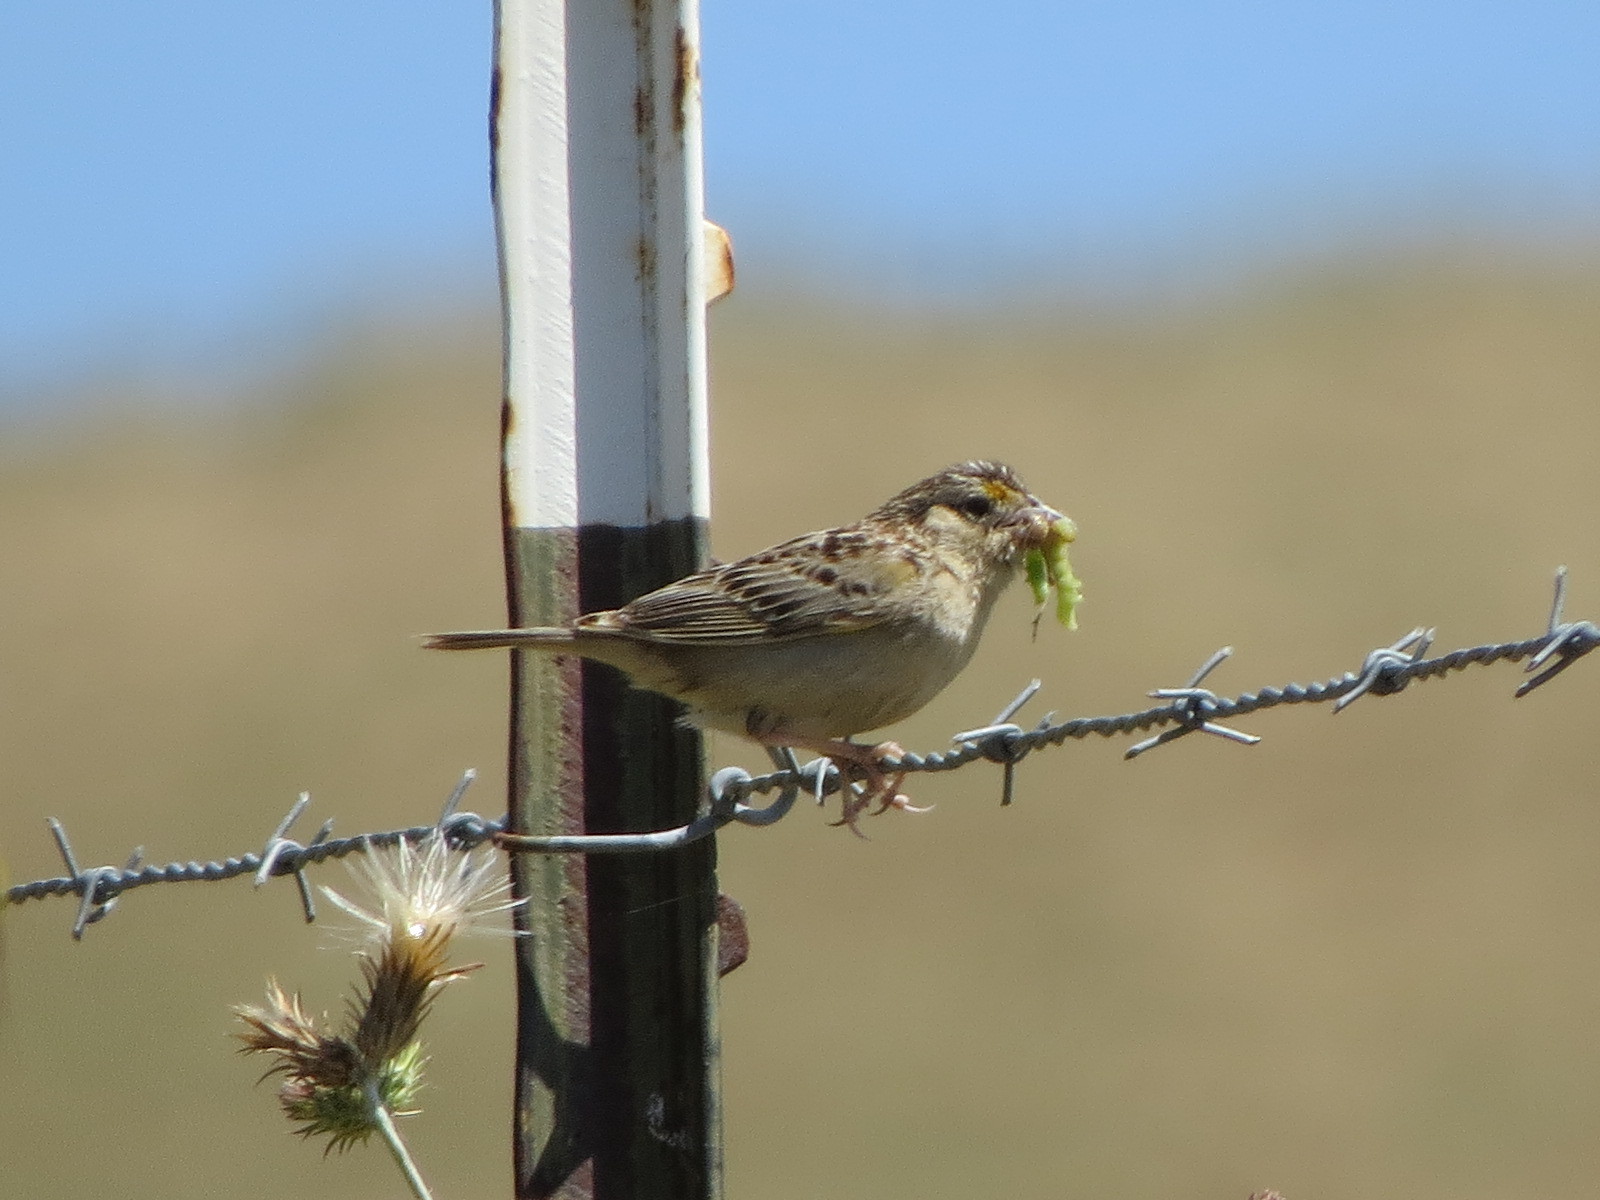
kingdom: Animalia
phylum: Chordata
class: Aves
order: Passeriformes
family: Passerellidae
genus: Ammodramus
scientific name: Ammodramus savannarum
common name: Grasshopper sparrow
